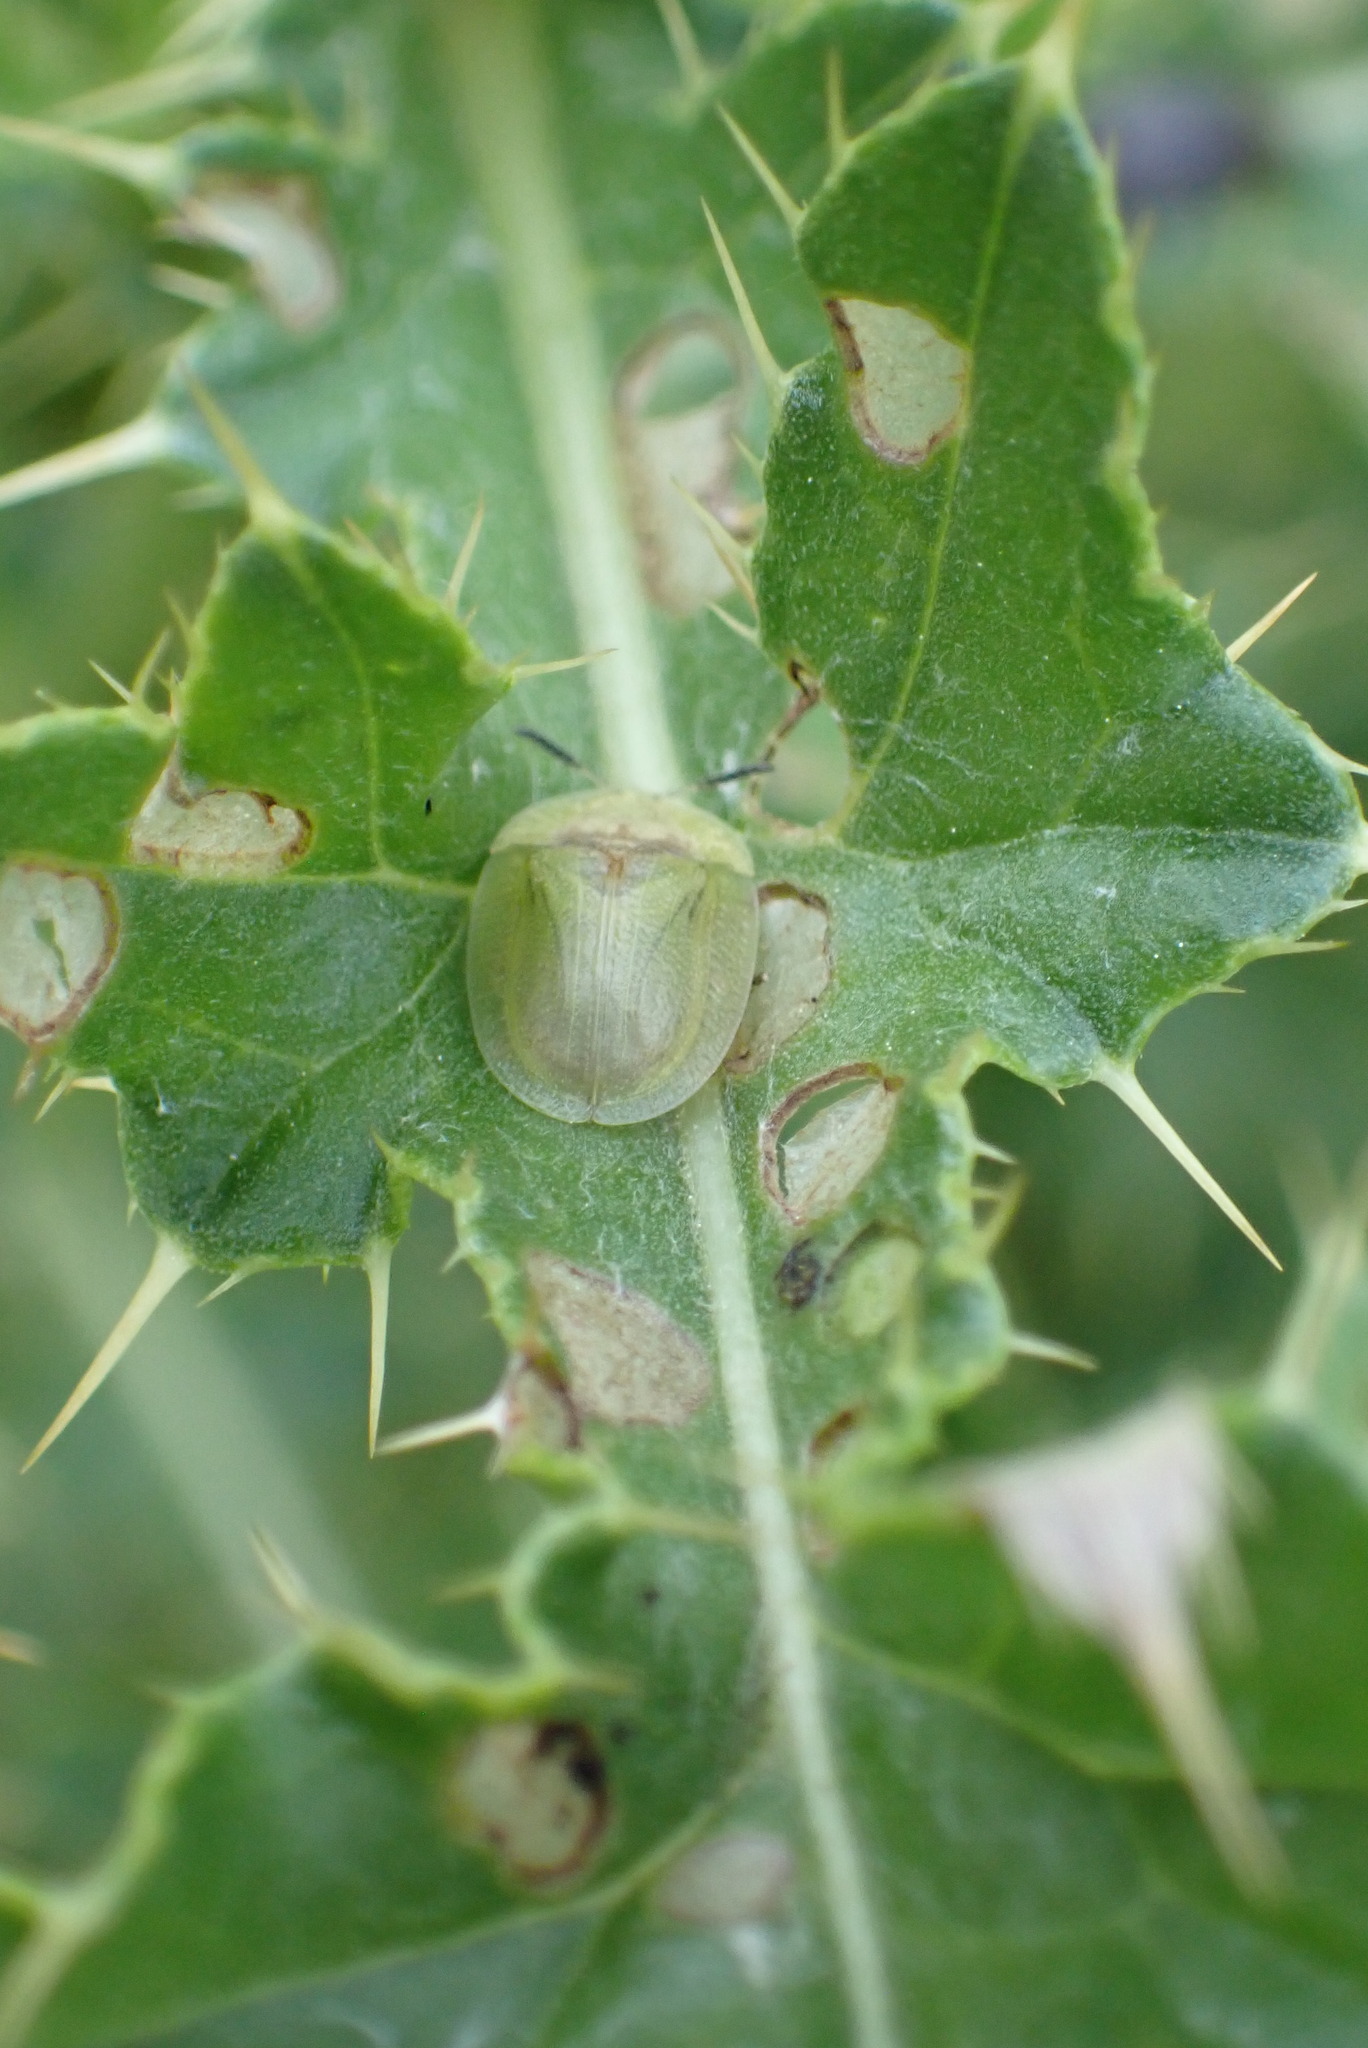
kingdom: Animalia
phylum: Arthropoda
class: Insecta
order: Coleoptera
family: Chrysomelidae
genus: Cassida
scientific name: Cassida rubiginosa
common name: Thistle tortoise beetle
